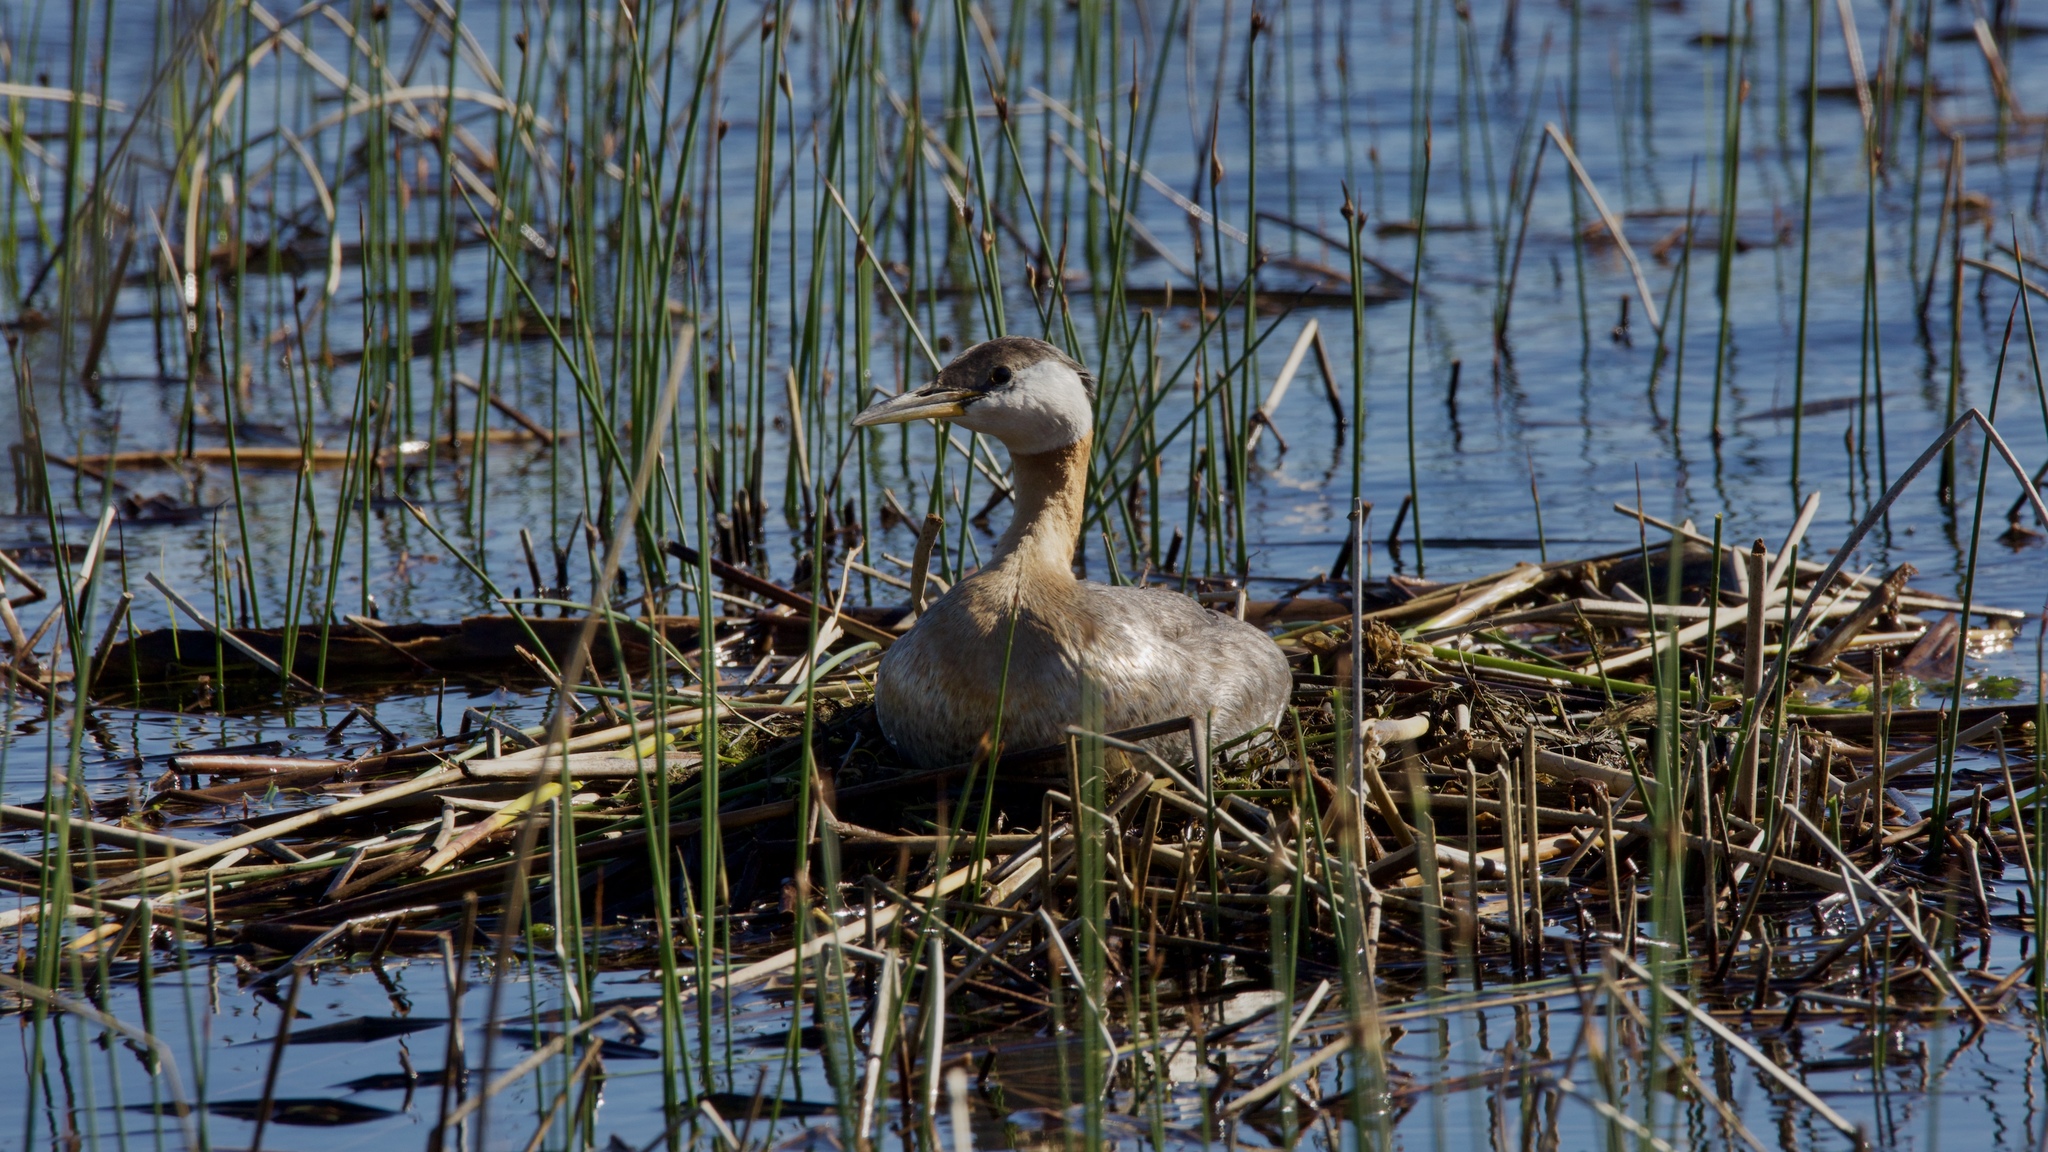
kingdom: Animalia
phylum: Chordata
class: Aves
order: Podicipediformes
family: Podicipedidae
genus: Podiceps
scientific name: Podiceps grisegena
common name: Red-necked grebe
